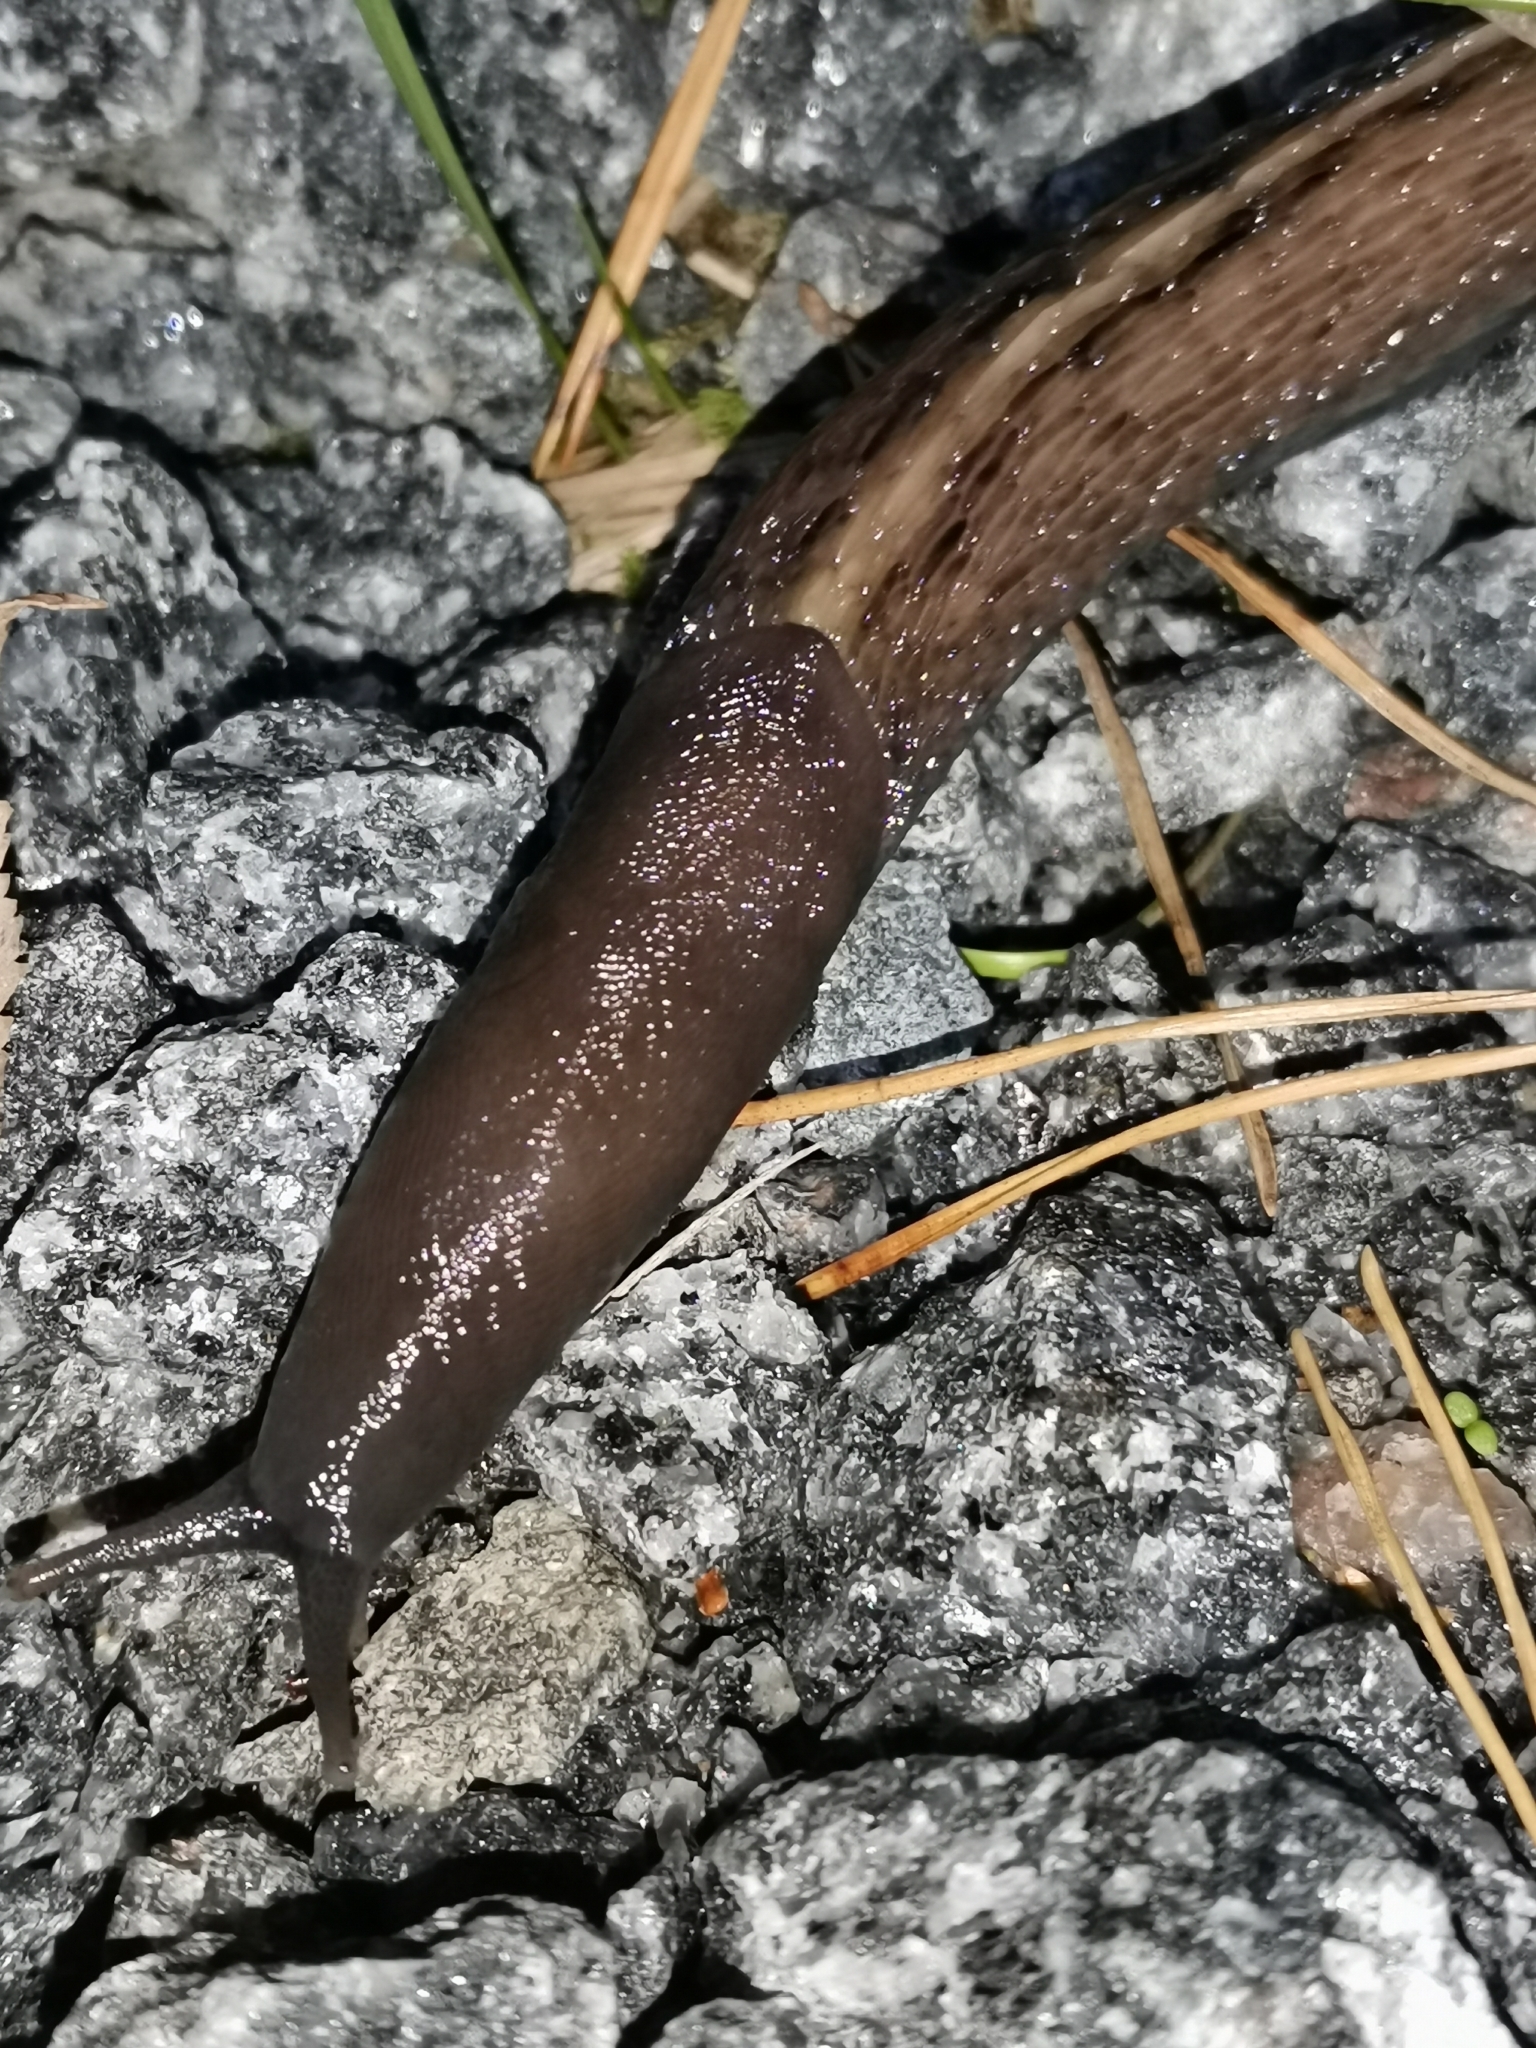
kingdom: Animalia
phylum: Mollusca
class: Gastropoda
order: Stylommatophora
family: Limacidae
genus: Limax
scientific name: Limax cinereoniger
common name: Ash-black slug
